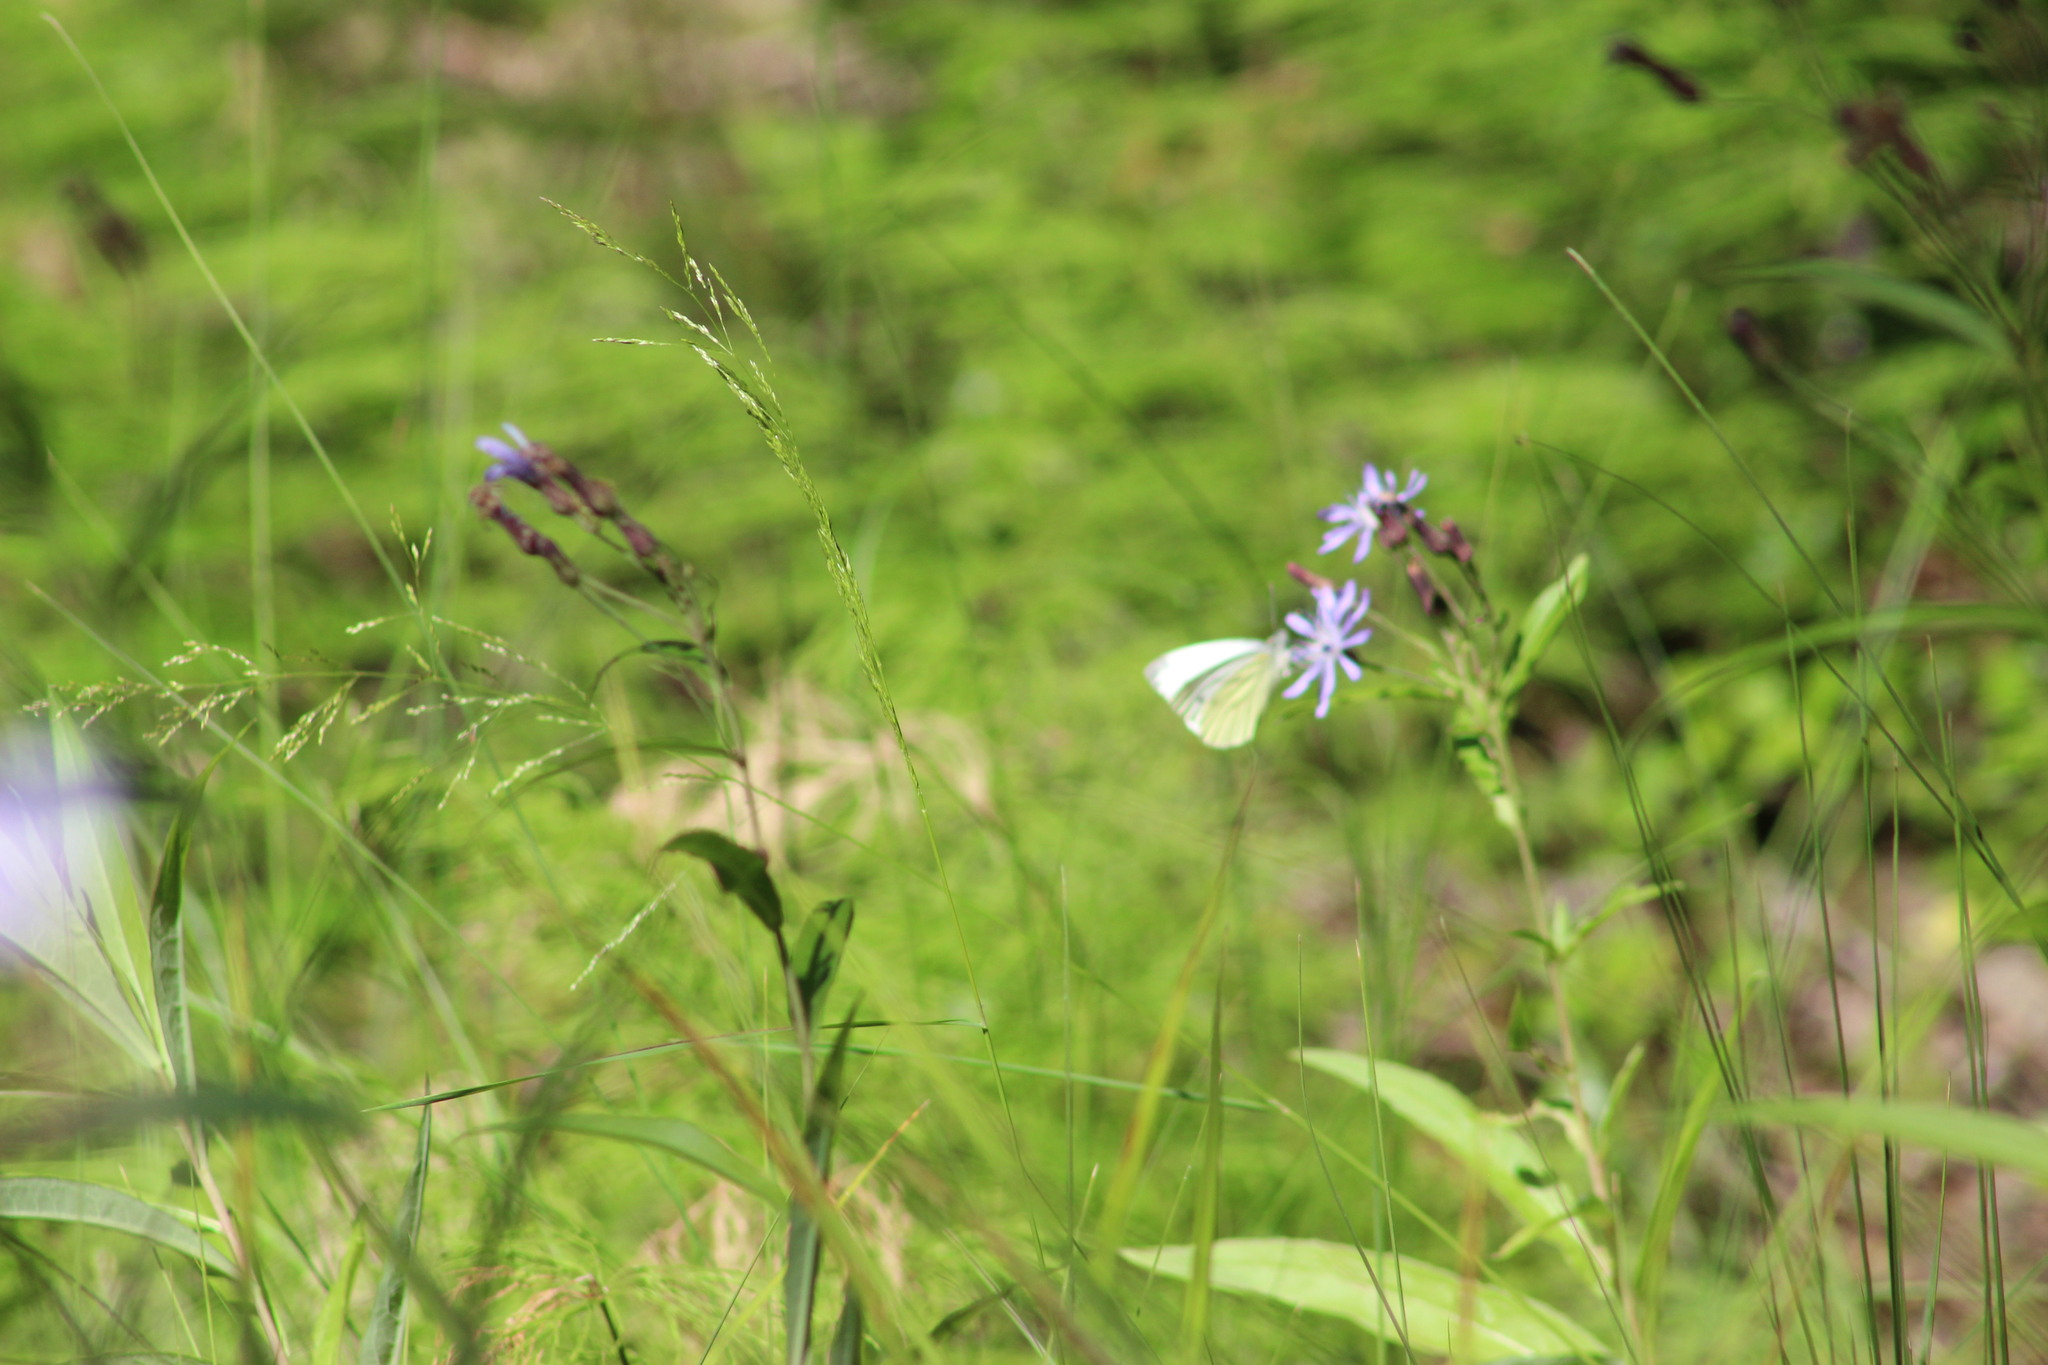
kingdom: Animalia
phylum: Arthropoda
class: Insecta
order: Lepidoptera
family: Pieridae
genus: Pieris
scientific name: Pieris napi
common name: Green-veined white
